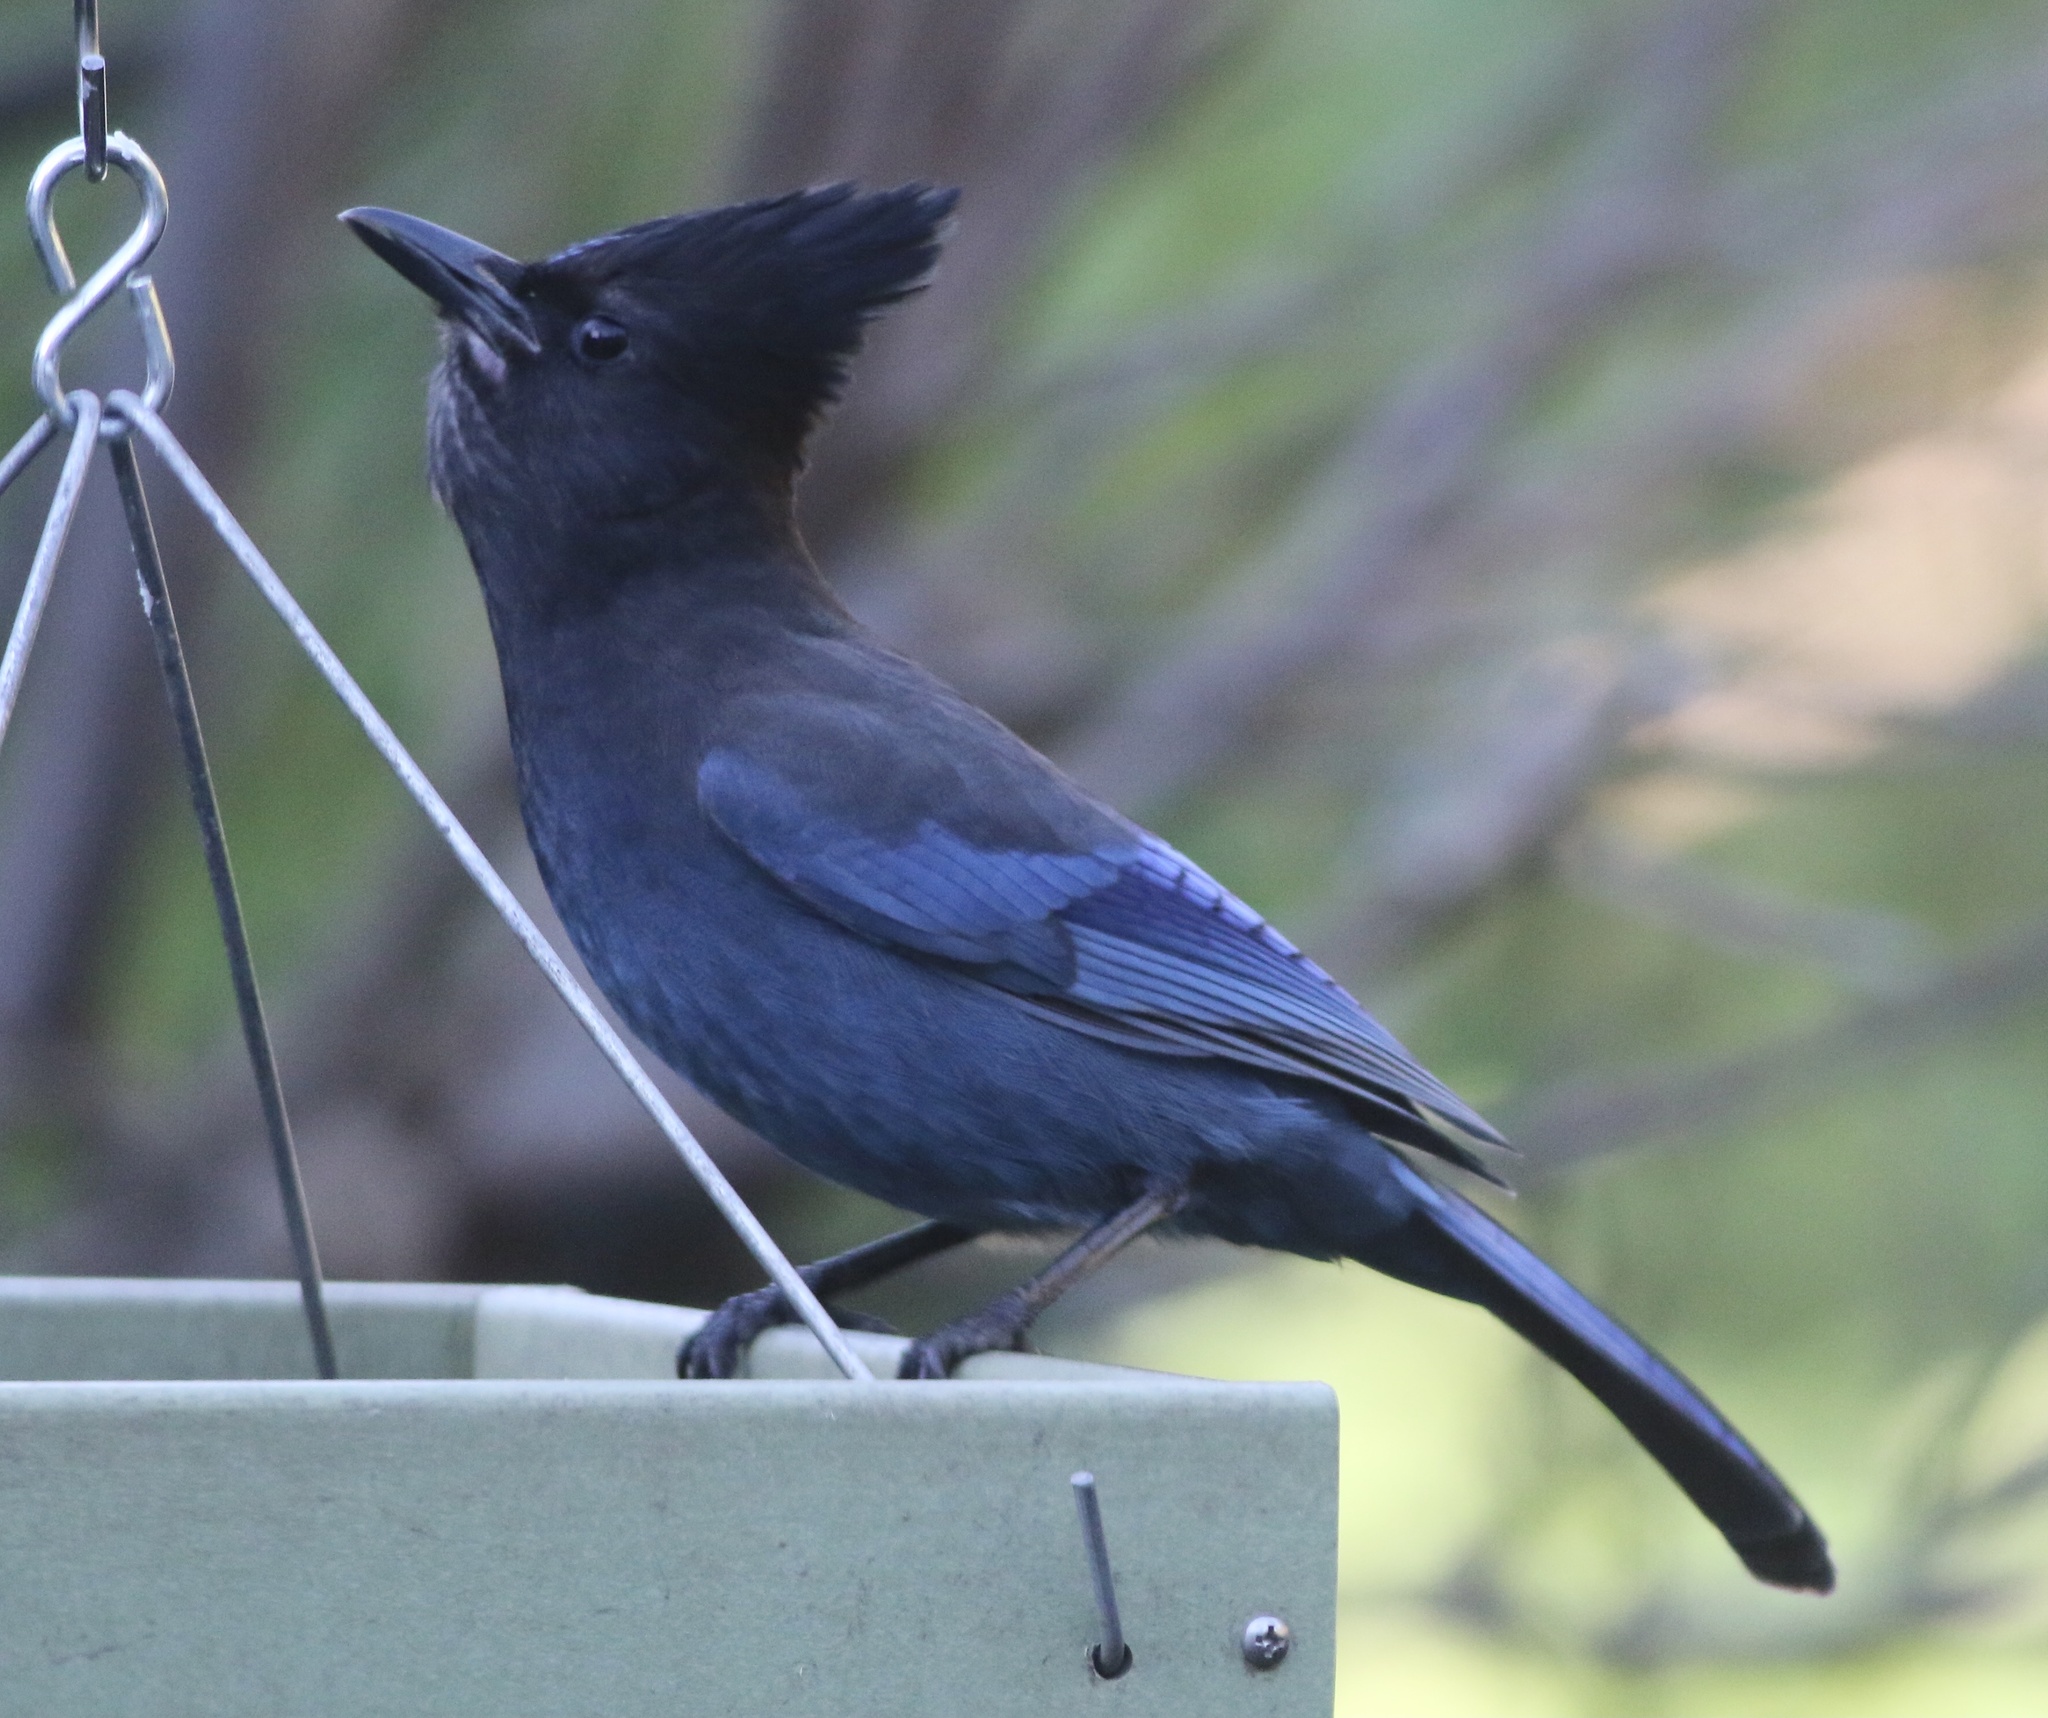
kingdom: Animalia
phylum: Chordata
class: Aves
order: Passeriformes
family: Corvidae
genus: Cyanocitta
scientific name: Cyanocitta stelleri
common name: Steller's jay
